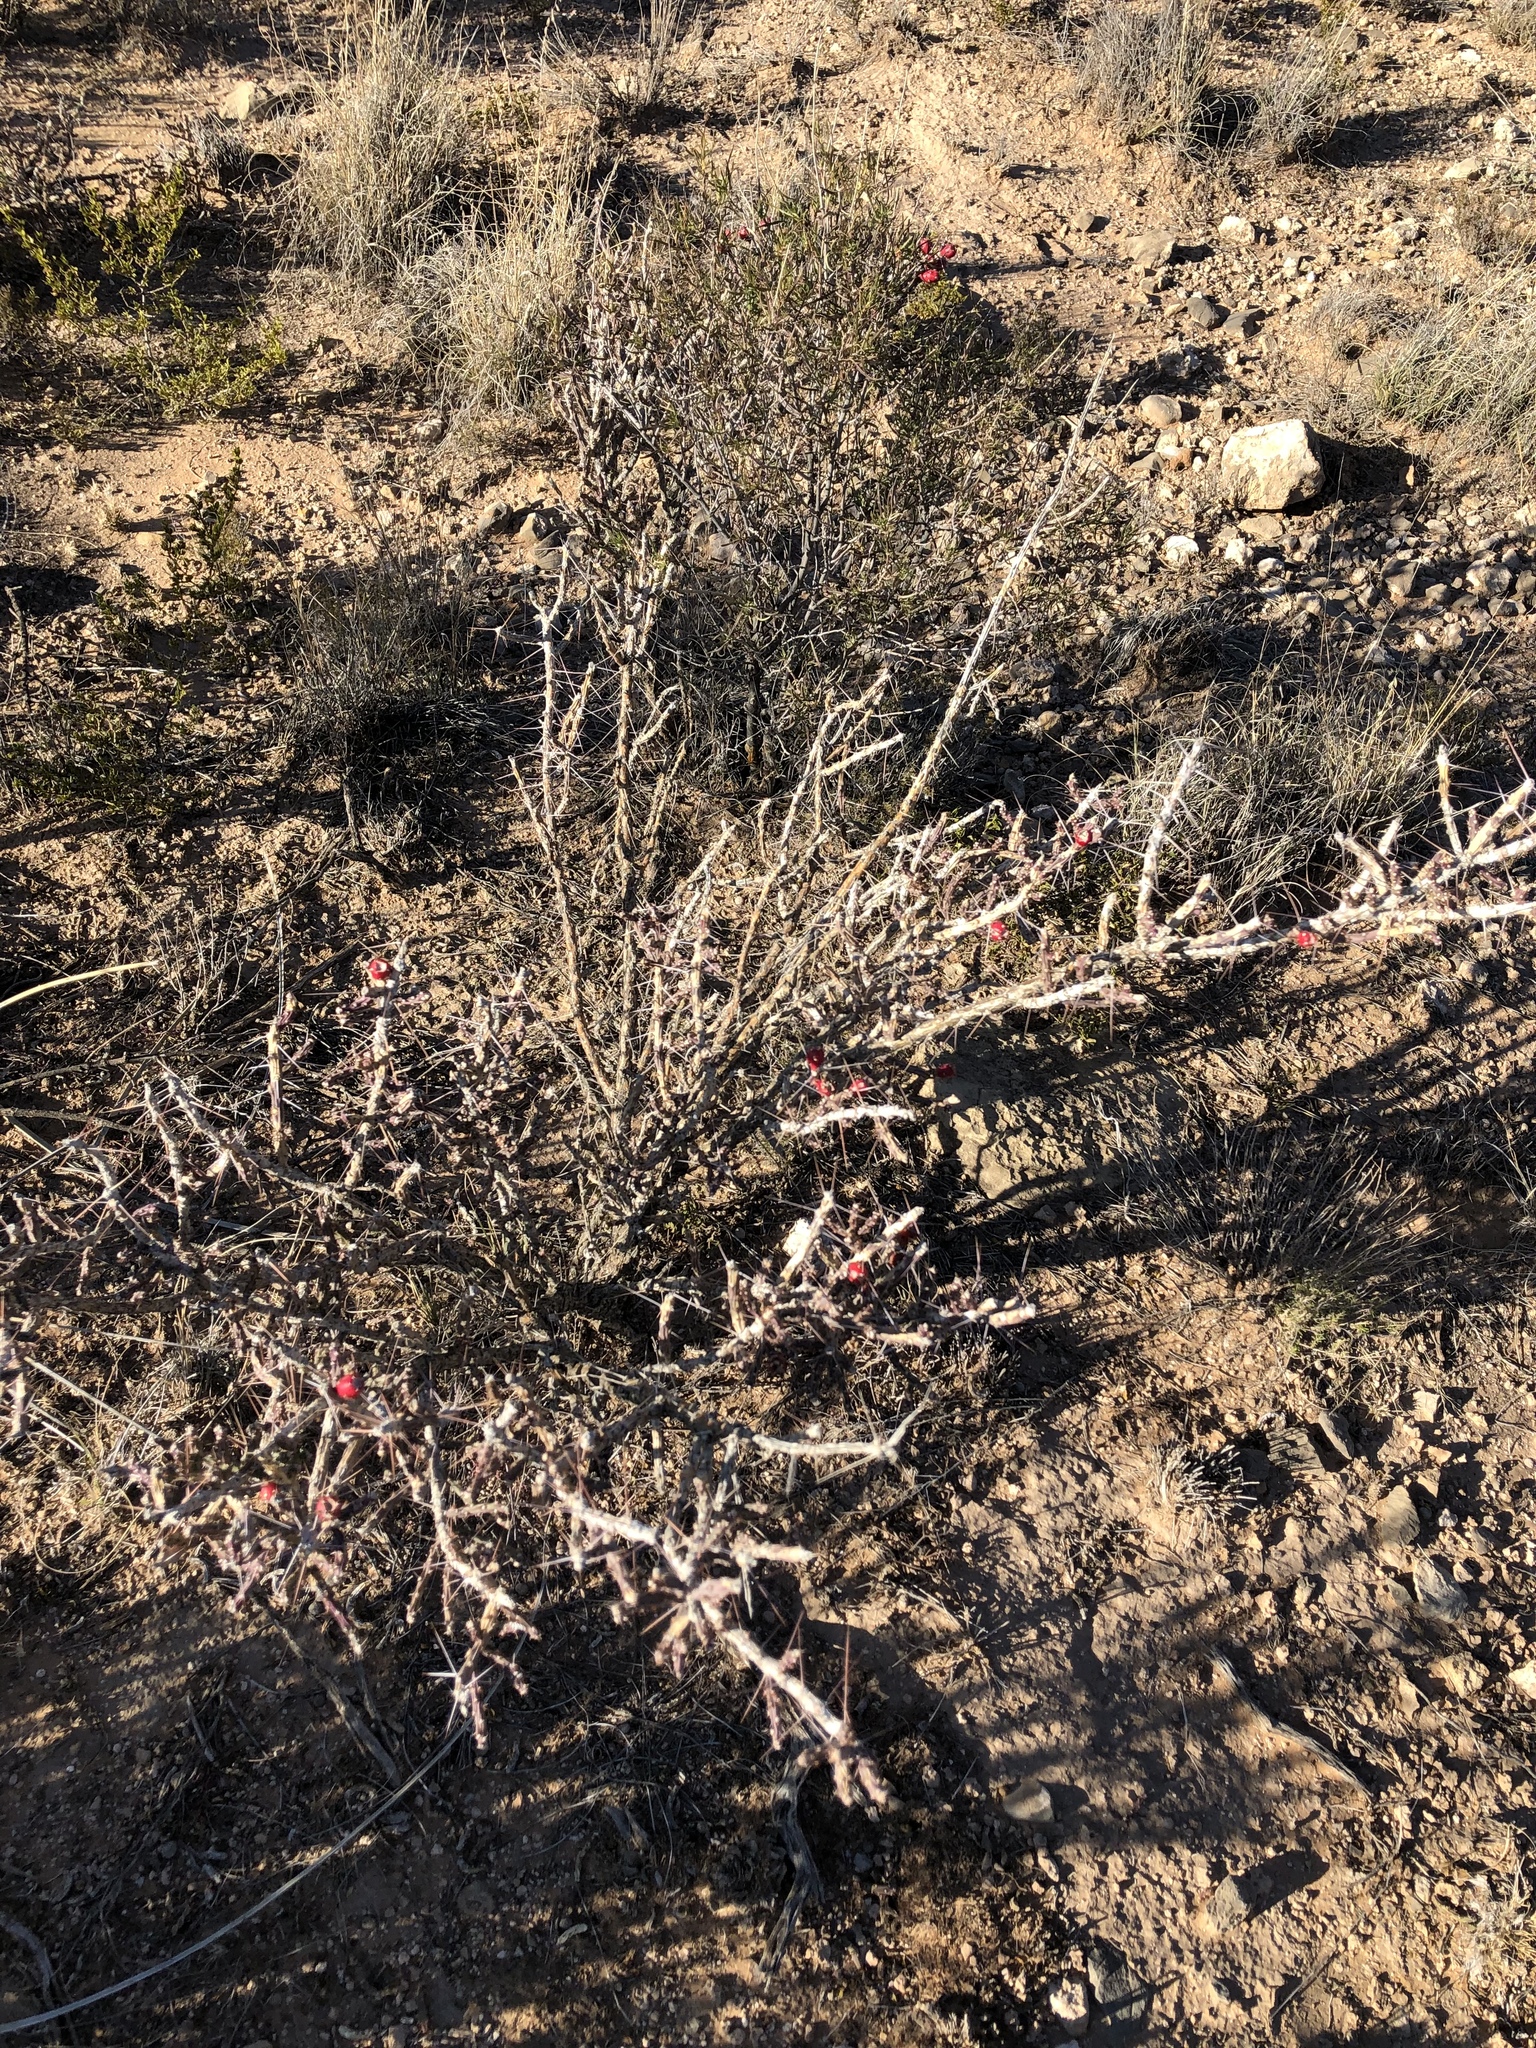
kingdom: Plantae
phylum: Tracheophyta
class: Magnoliopsida
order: Caryophyllales
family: Cactaceae
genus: Cylindropuntia
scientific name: Cylindropuntia leptocaulis
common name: Christmas cactus
